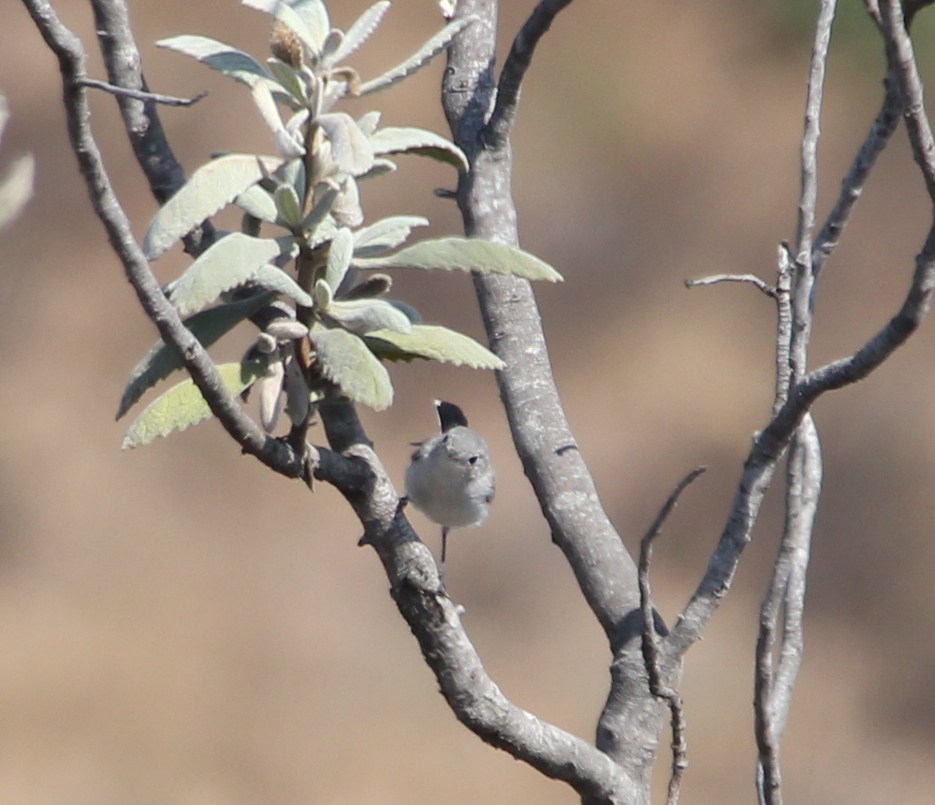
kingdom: Animalia
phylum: Chordata
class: Aves
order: Passeriformes
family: Polioptilidae
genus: Polioptila
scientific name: Polioptila caerulea
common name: Blue-gray gnatcatcher
